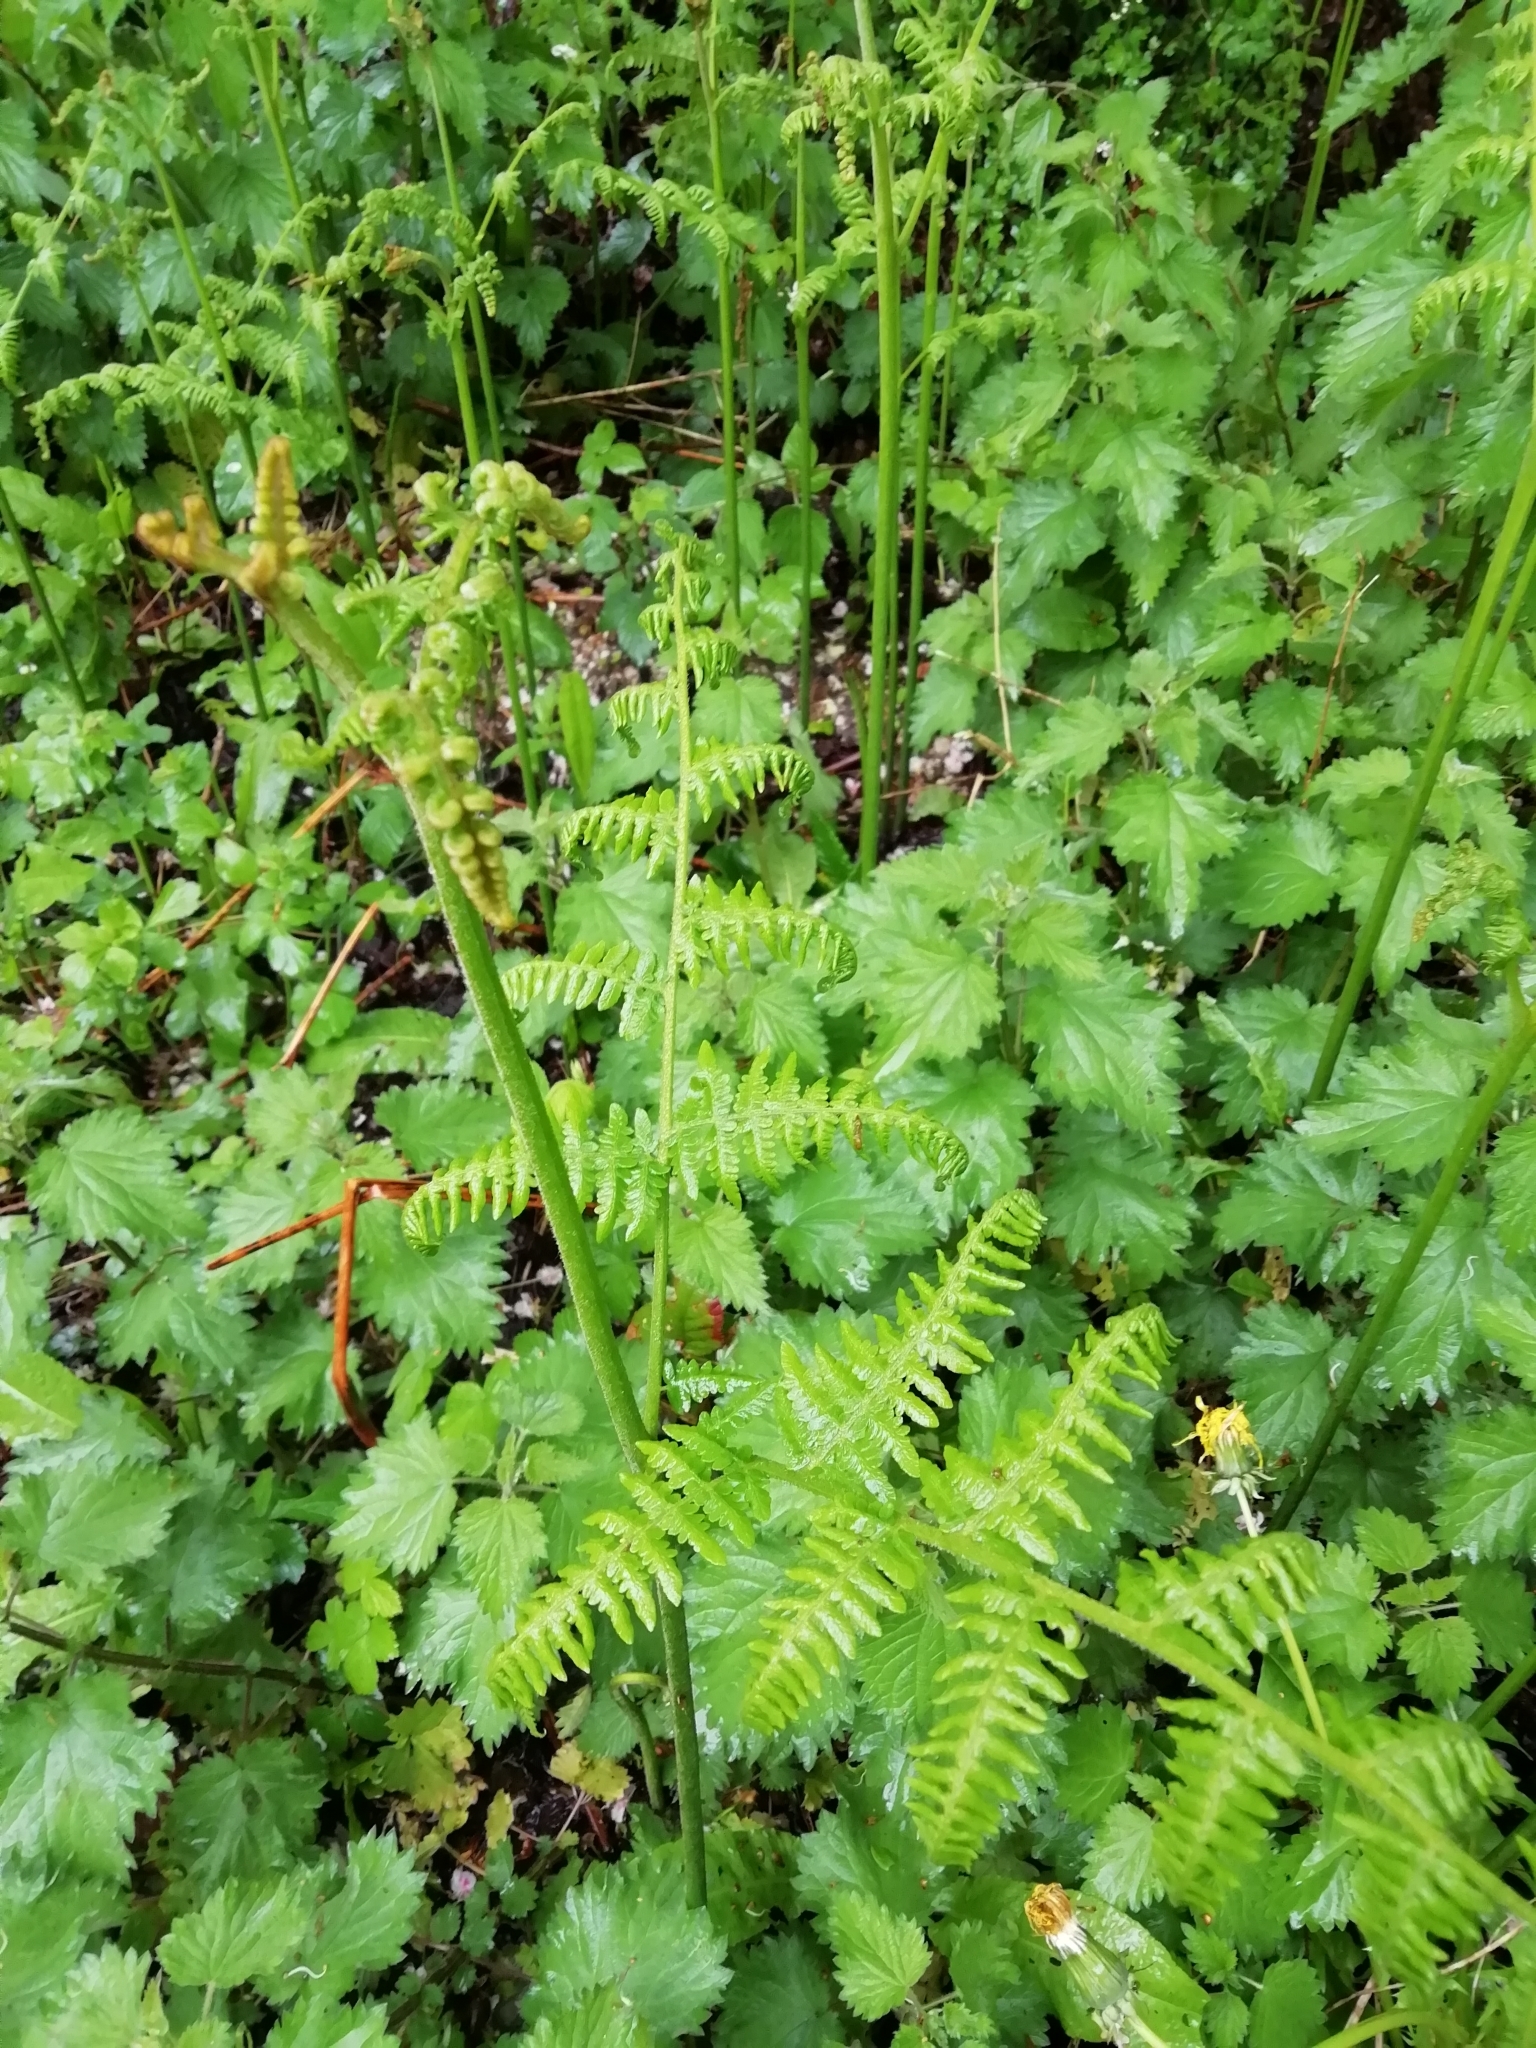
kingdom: Plantae
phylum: Tracheophyta
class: Polypodiopsida
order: Polypodiales
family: Dennstaedtiaceae
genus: Pteridium
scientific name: Pteridium aquilinum
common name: Bracken
